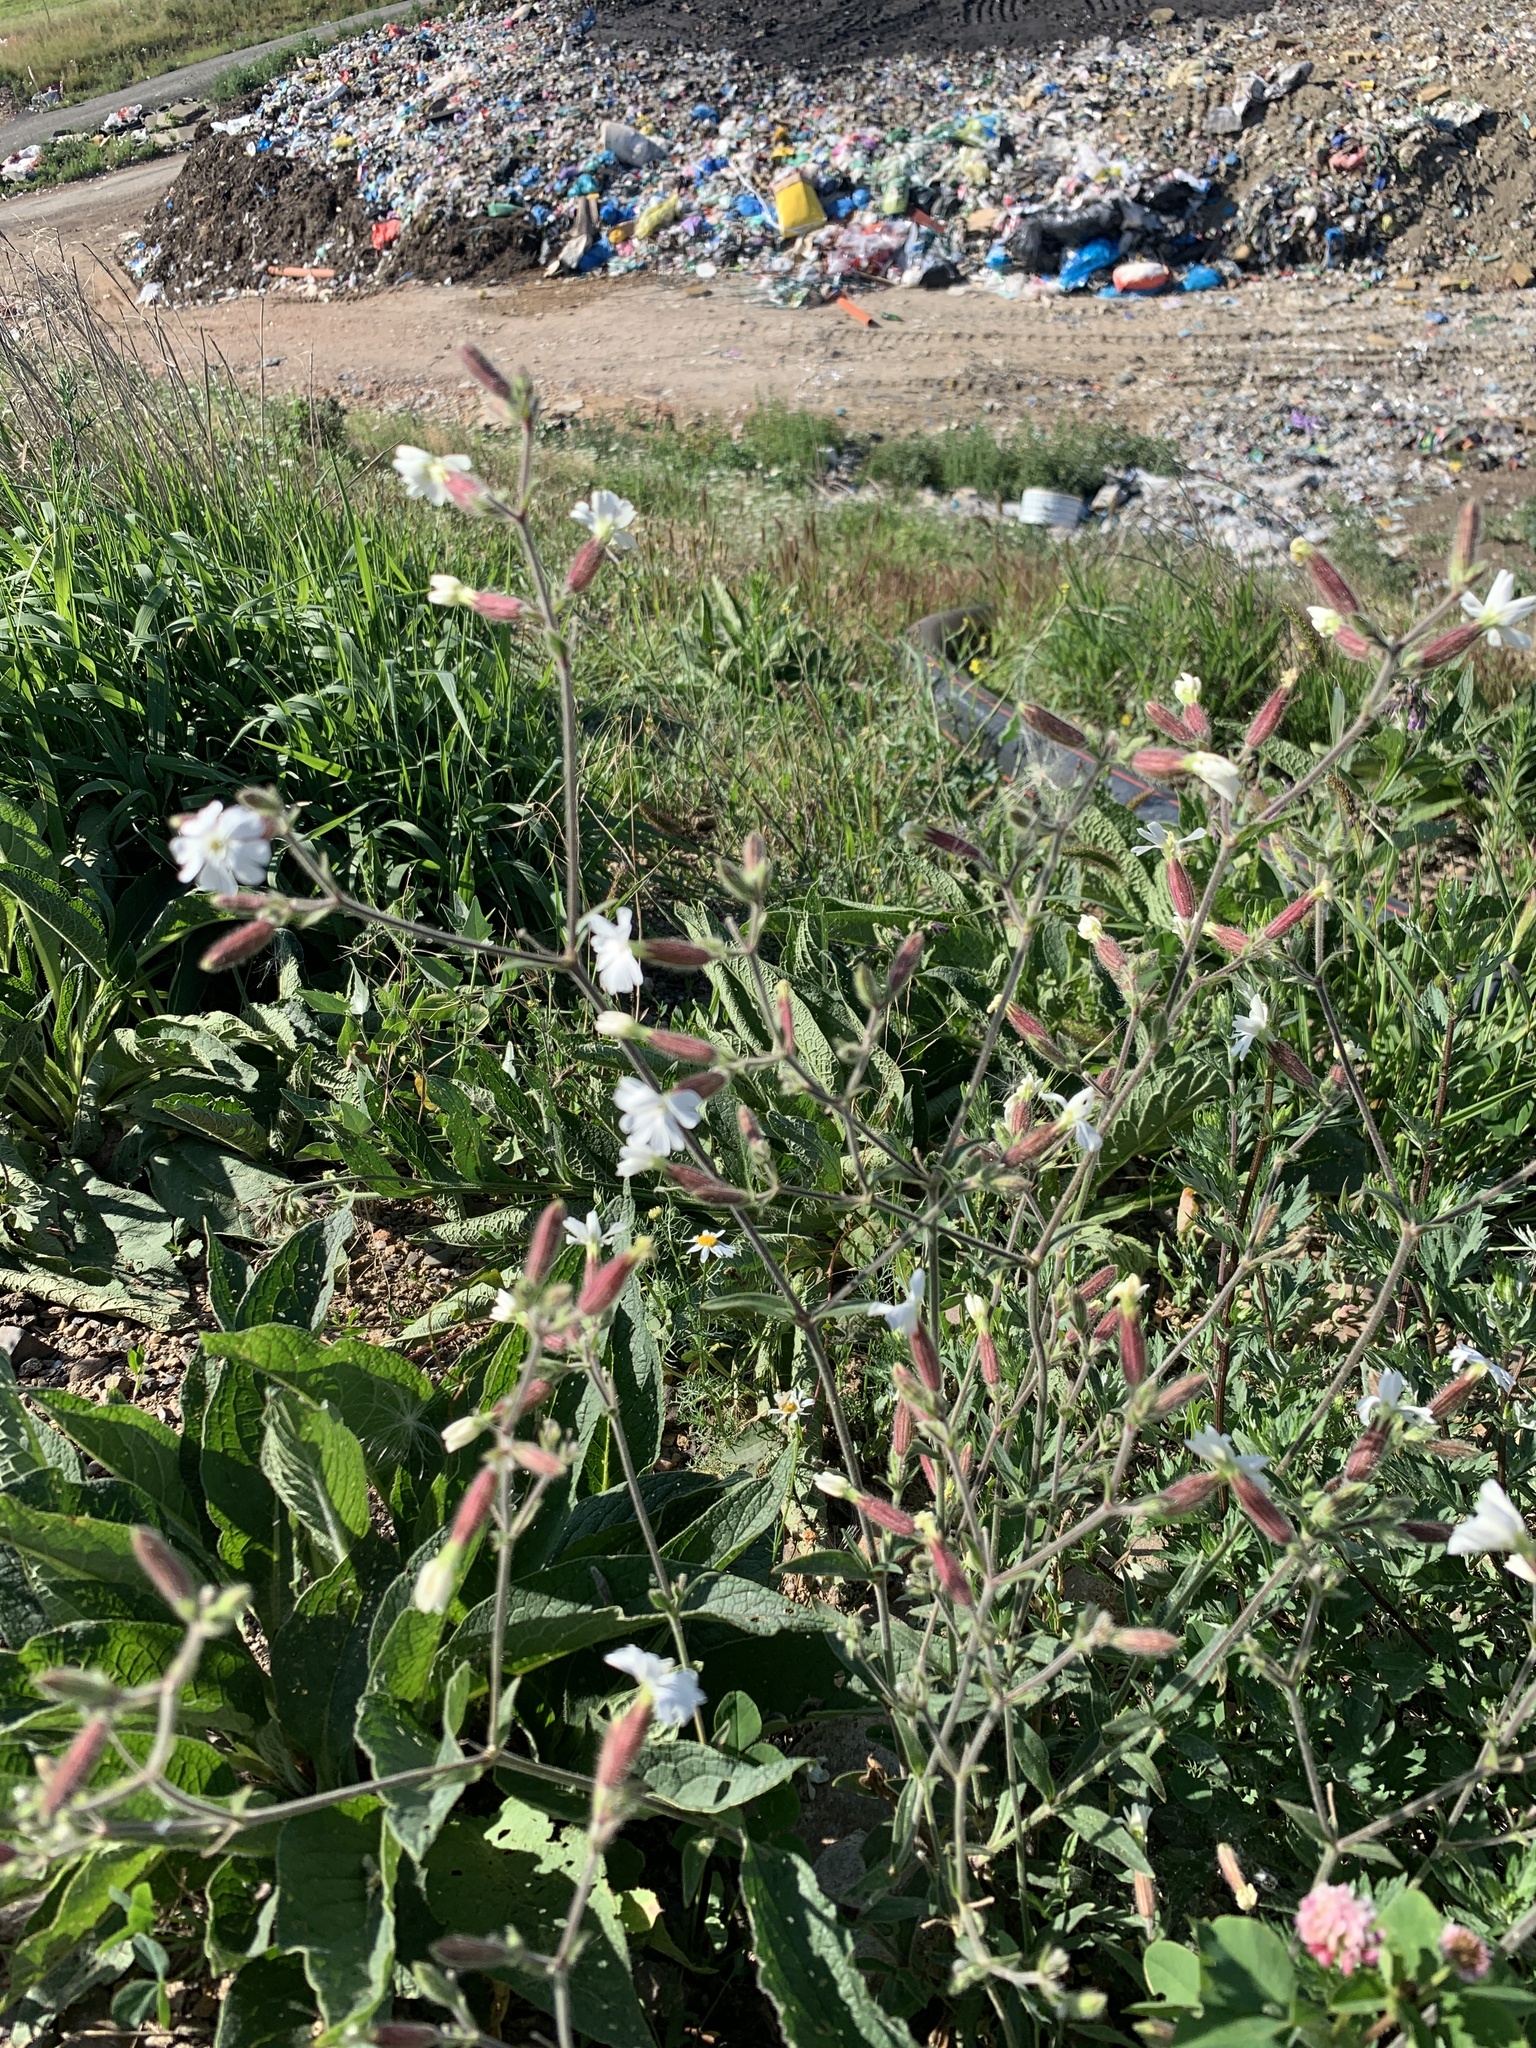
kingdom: Plantae
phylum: Tracheophyta
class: Magnoliopsida
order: Caryophyllales
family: Caryophyllaceae
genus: Silene
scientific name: Silene latifolia
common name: White campion
